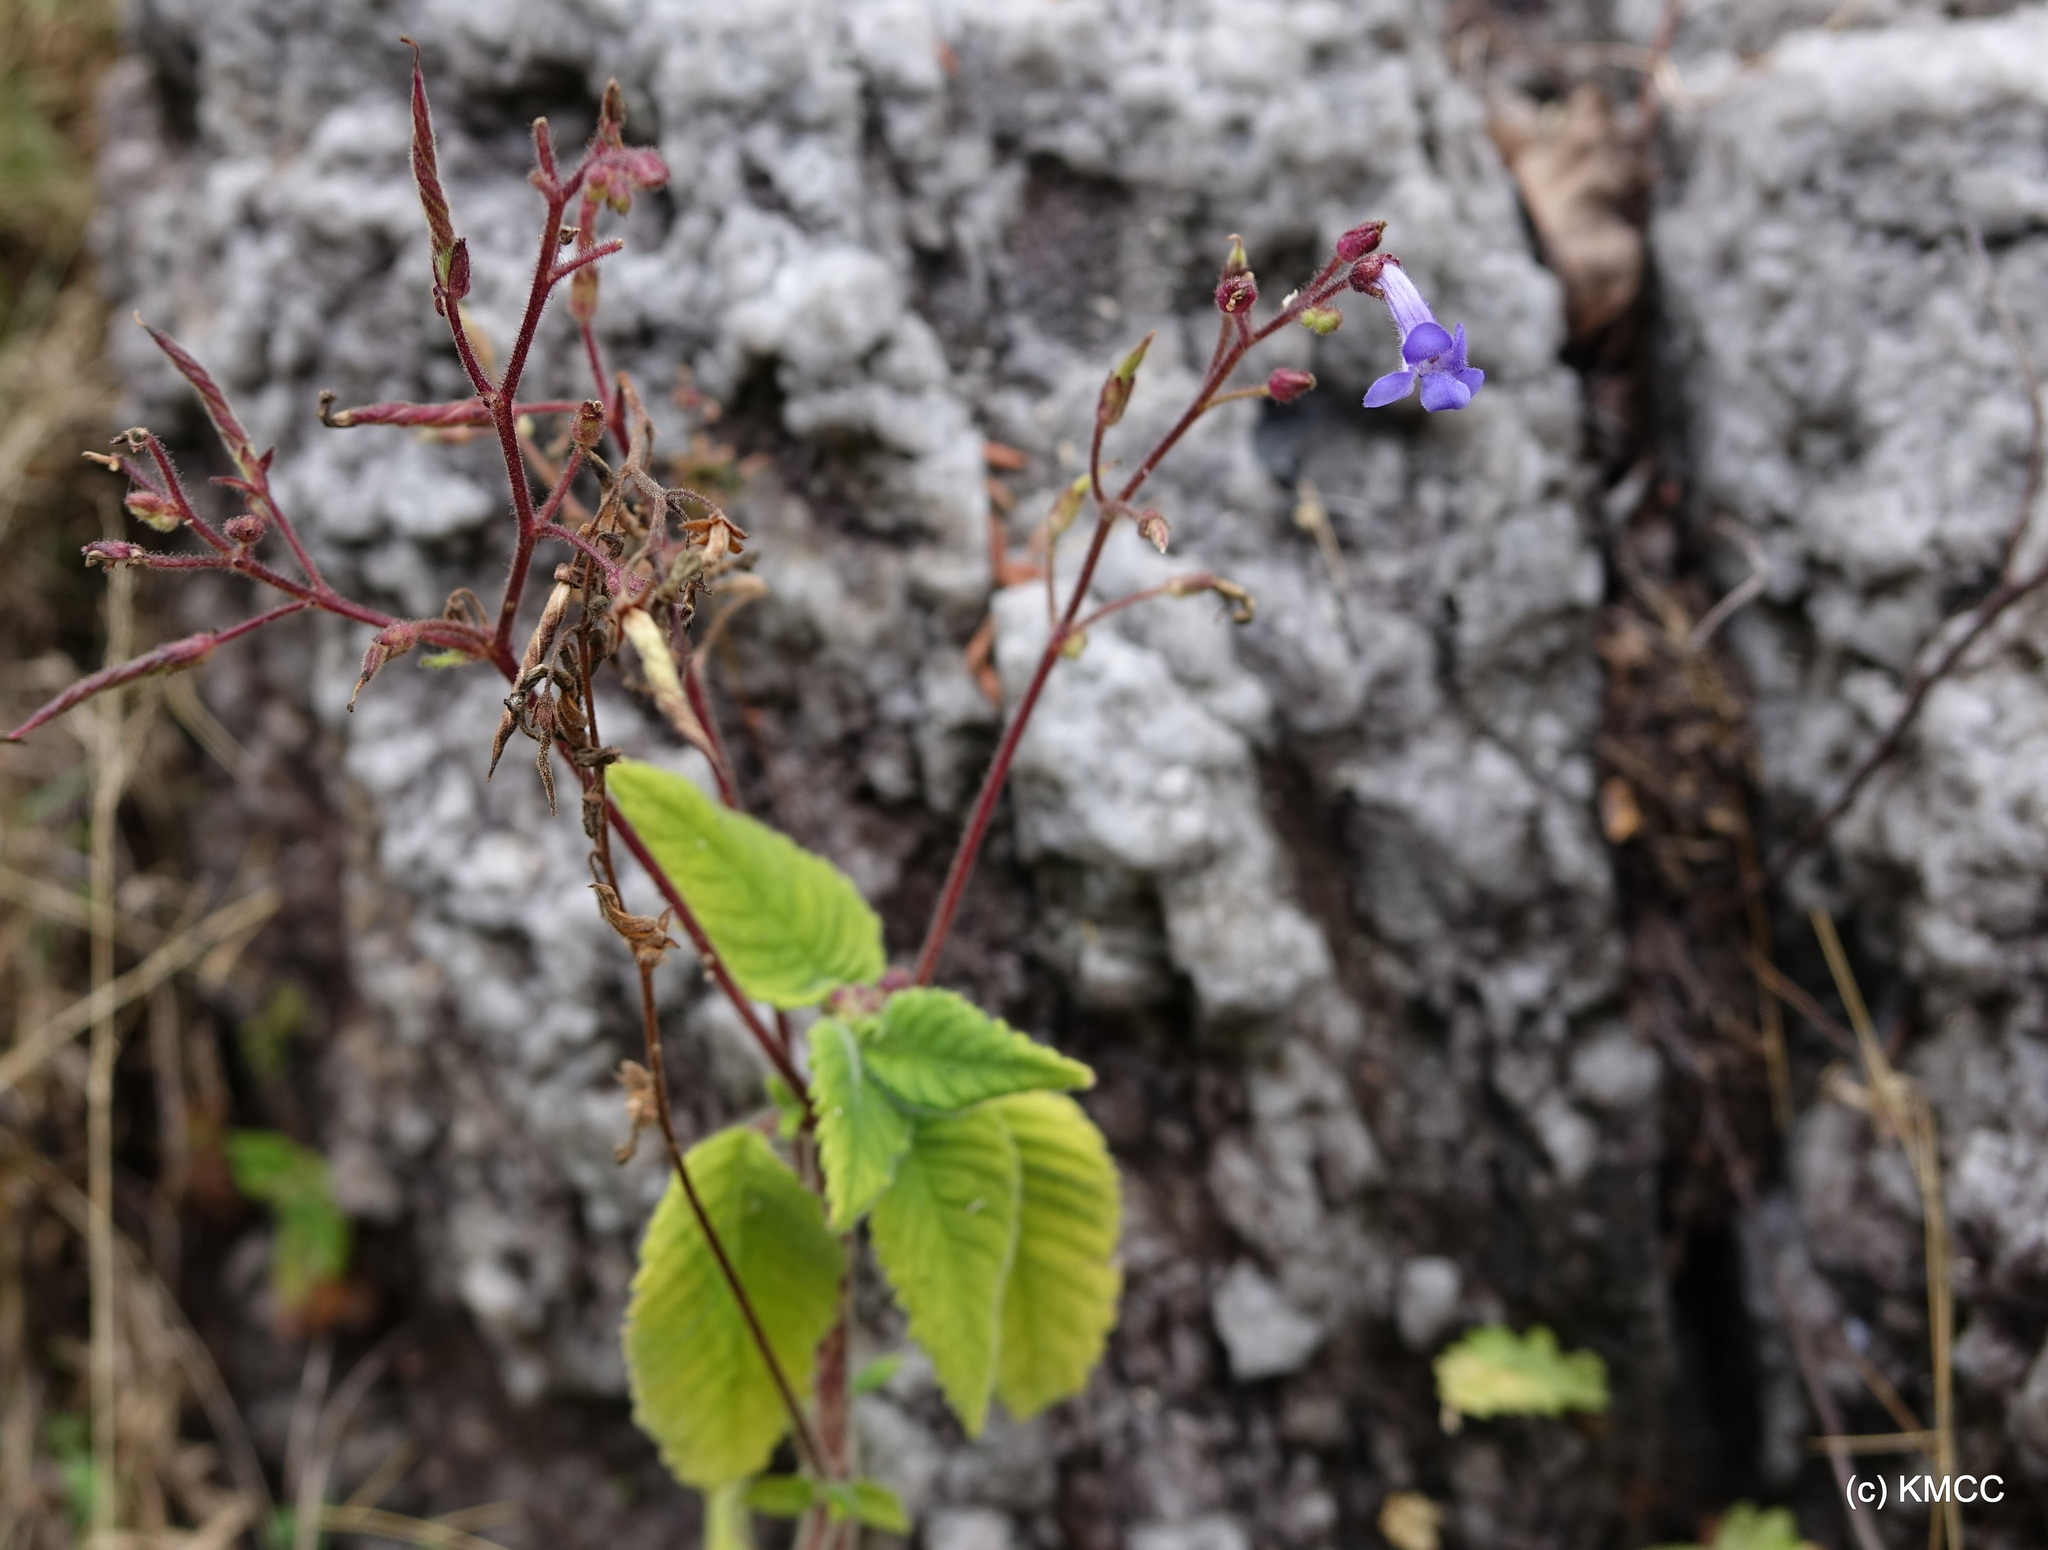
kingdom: Plantae
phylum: Tracheophyta
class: Magnoliopsida
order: Lamiales
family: Gesneriaceae
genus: Streptocarpus
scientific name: Streptocarpus hilsenbergii
